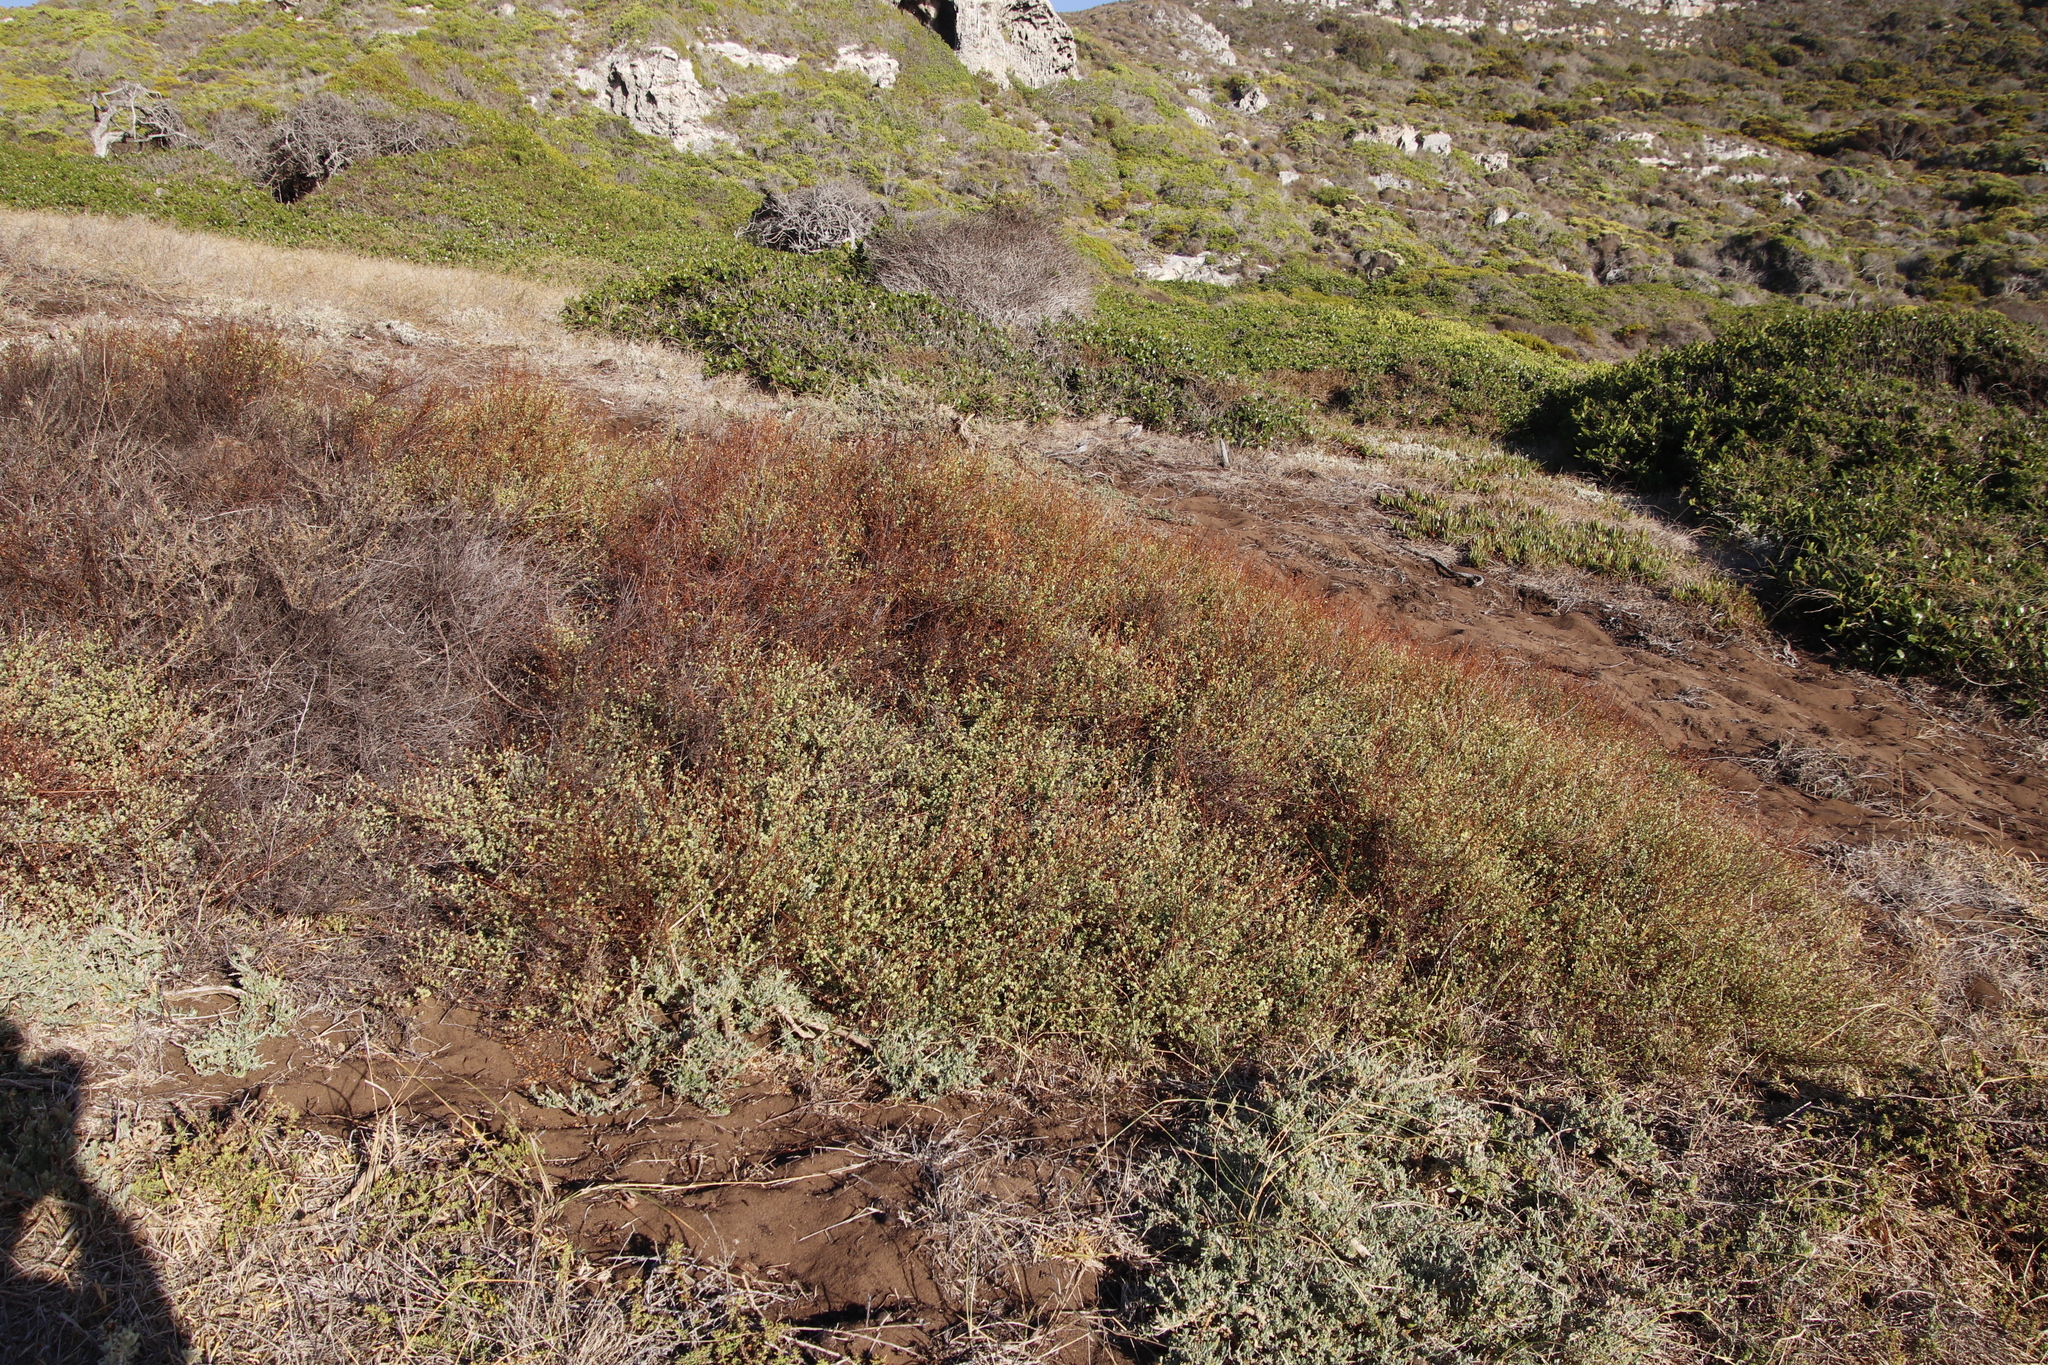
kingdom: Plantae
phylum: Tracheophyta
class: Magnoliopsida
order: Rosales
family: Rosaceae
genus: Cliffortia
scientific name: Cliffortia obcordata
